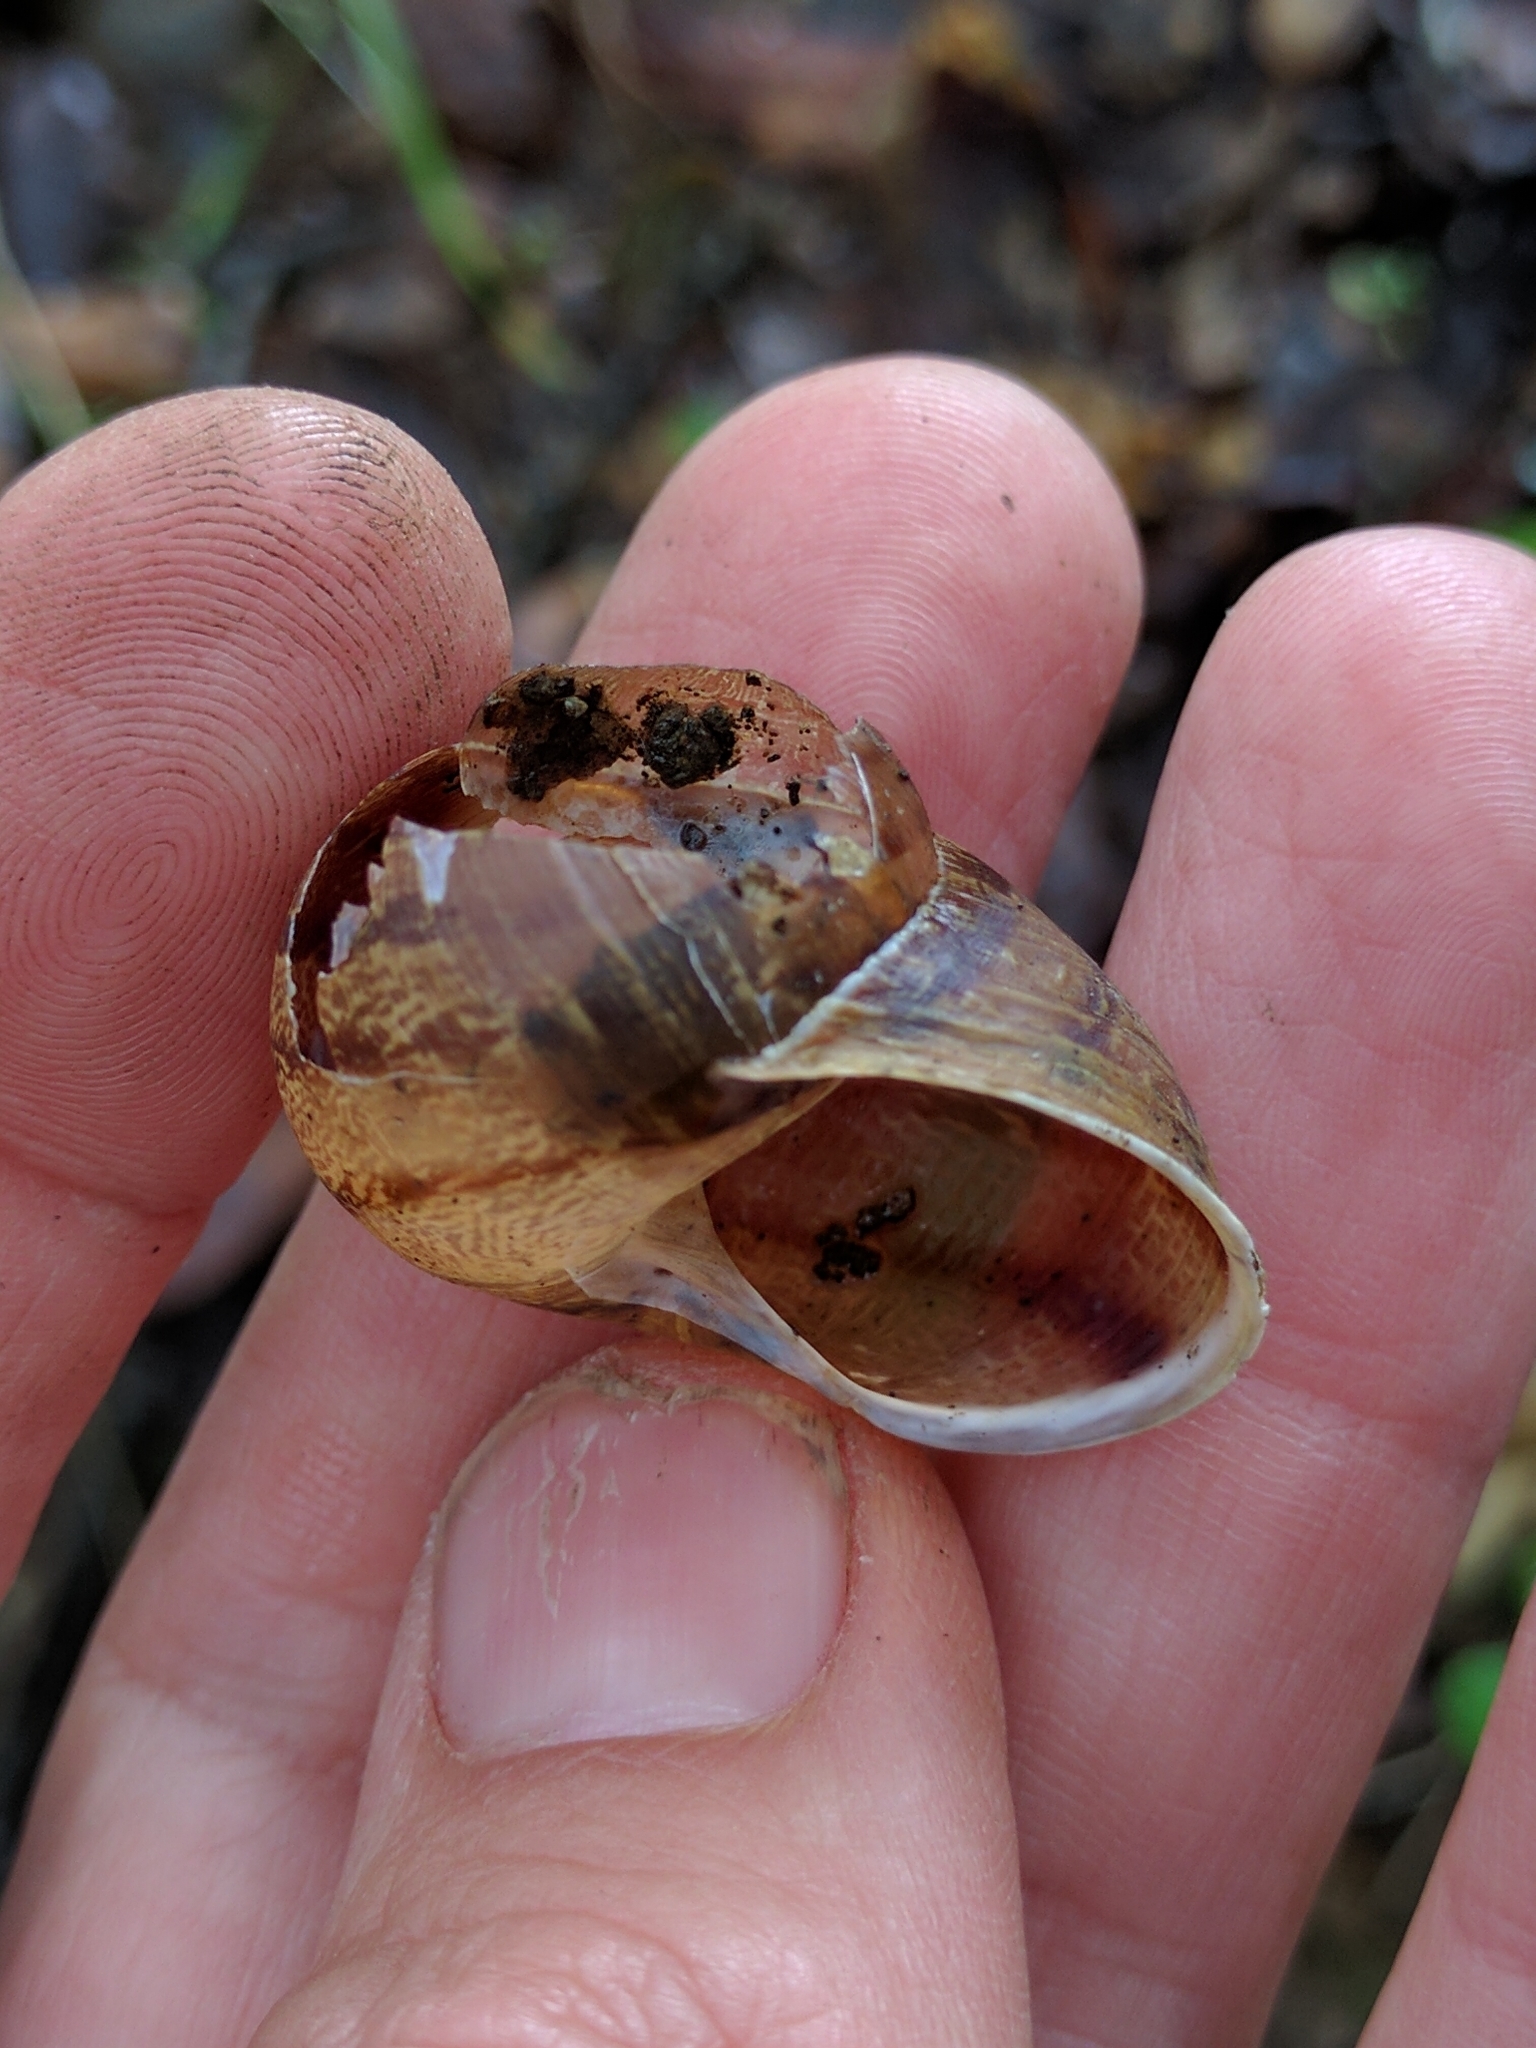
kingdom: Animalia
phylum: Mollusca
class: Gastropoda
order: Stylommatophora
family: Helicidae
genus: Cornu
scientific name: Cornu aspersum
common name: Brown garden snail
